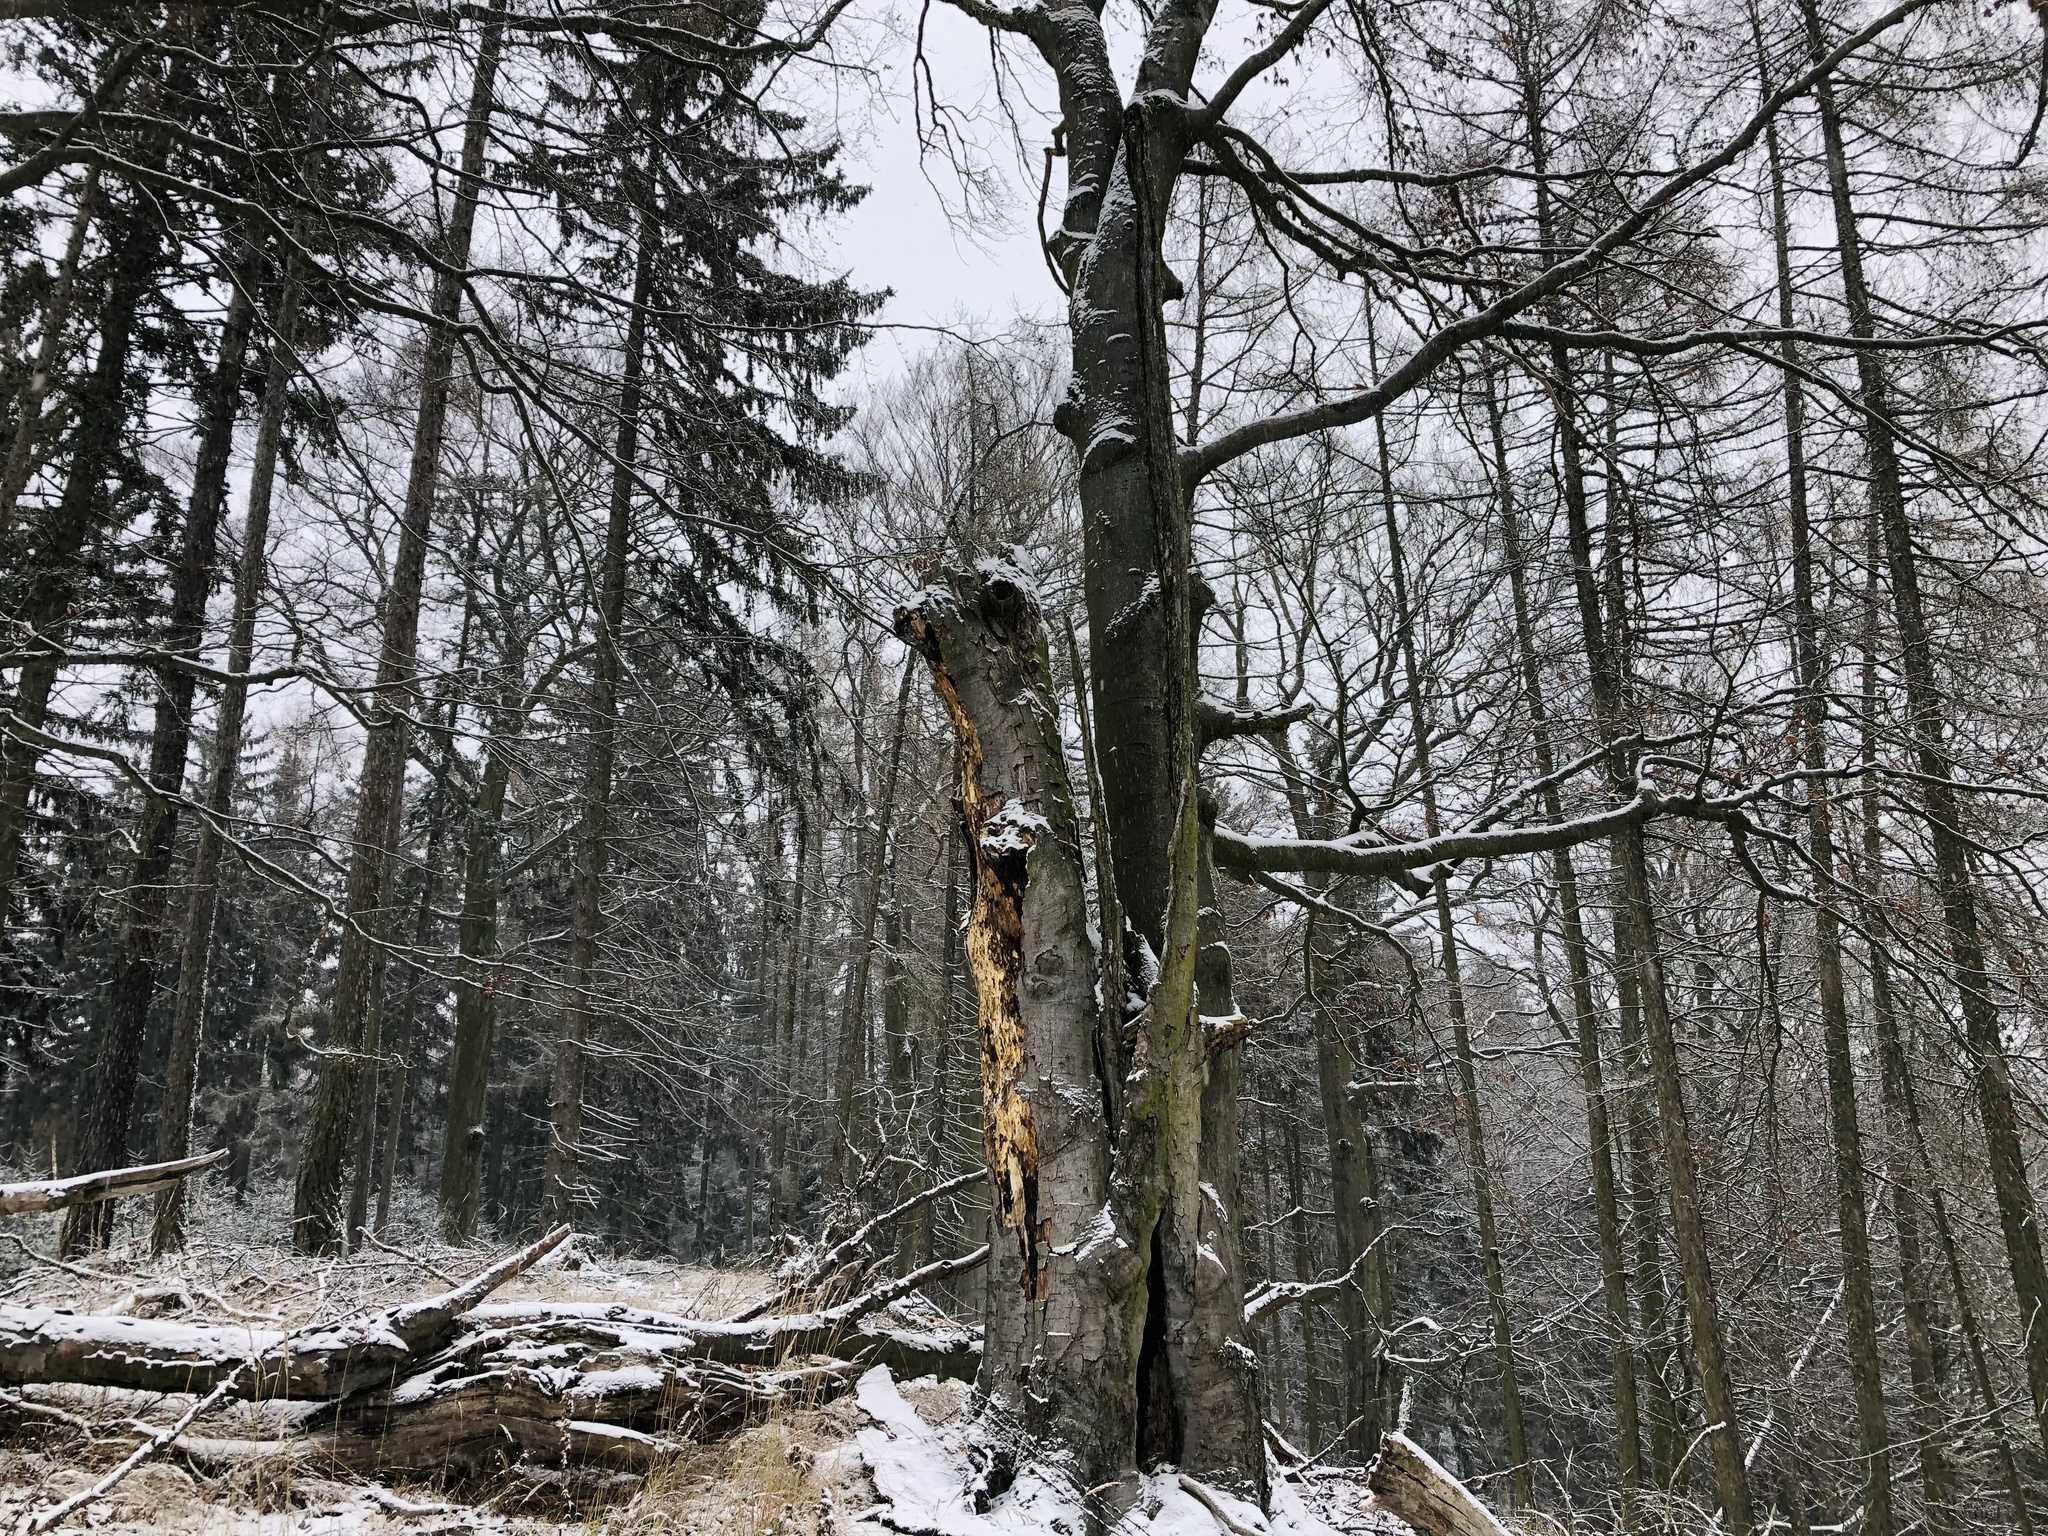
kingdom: Plantae
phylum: Tracheophyta
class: Magnoliopsida
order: Fagales
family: Fagaceae
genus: Fagus
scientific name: Fagus sylvatica
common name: Beech
